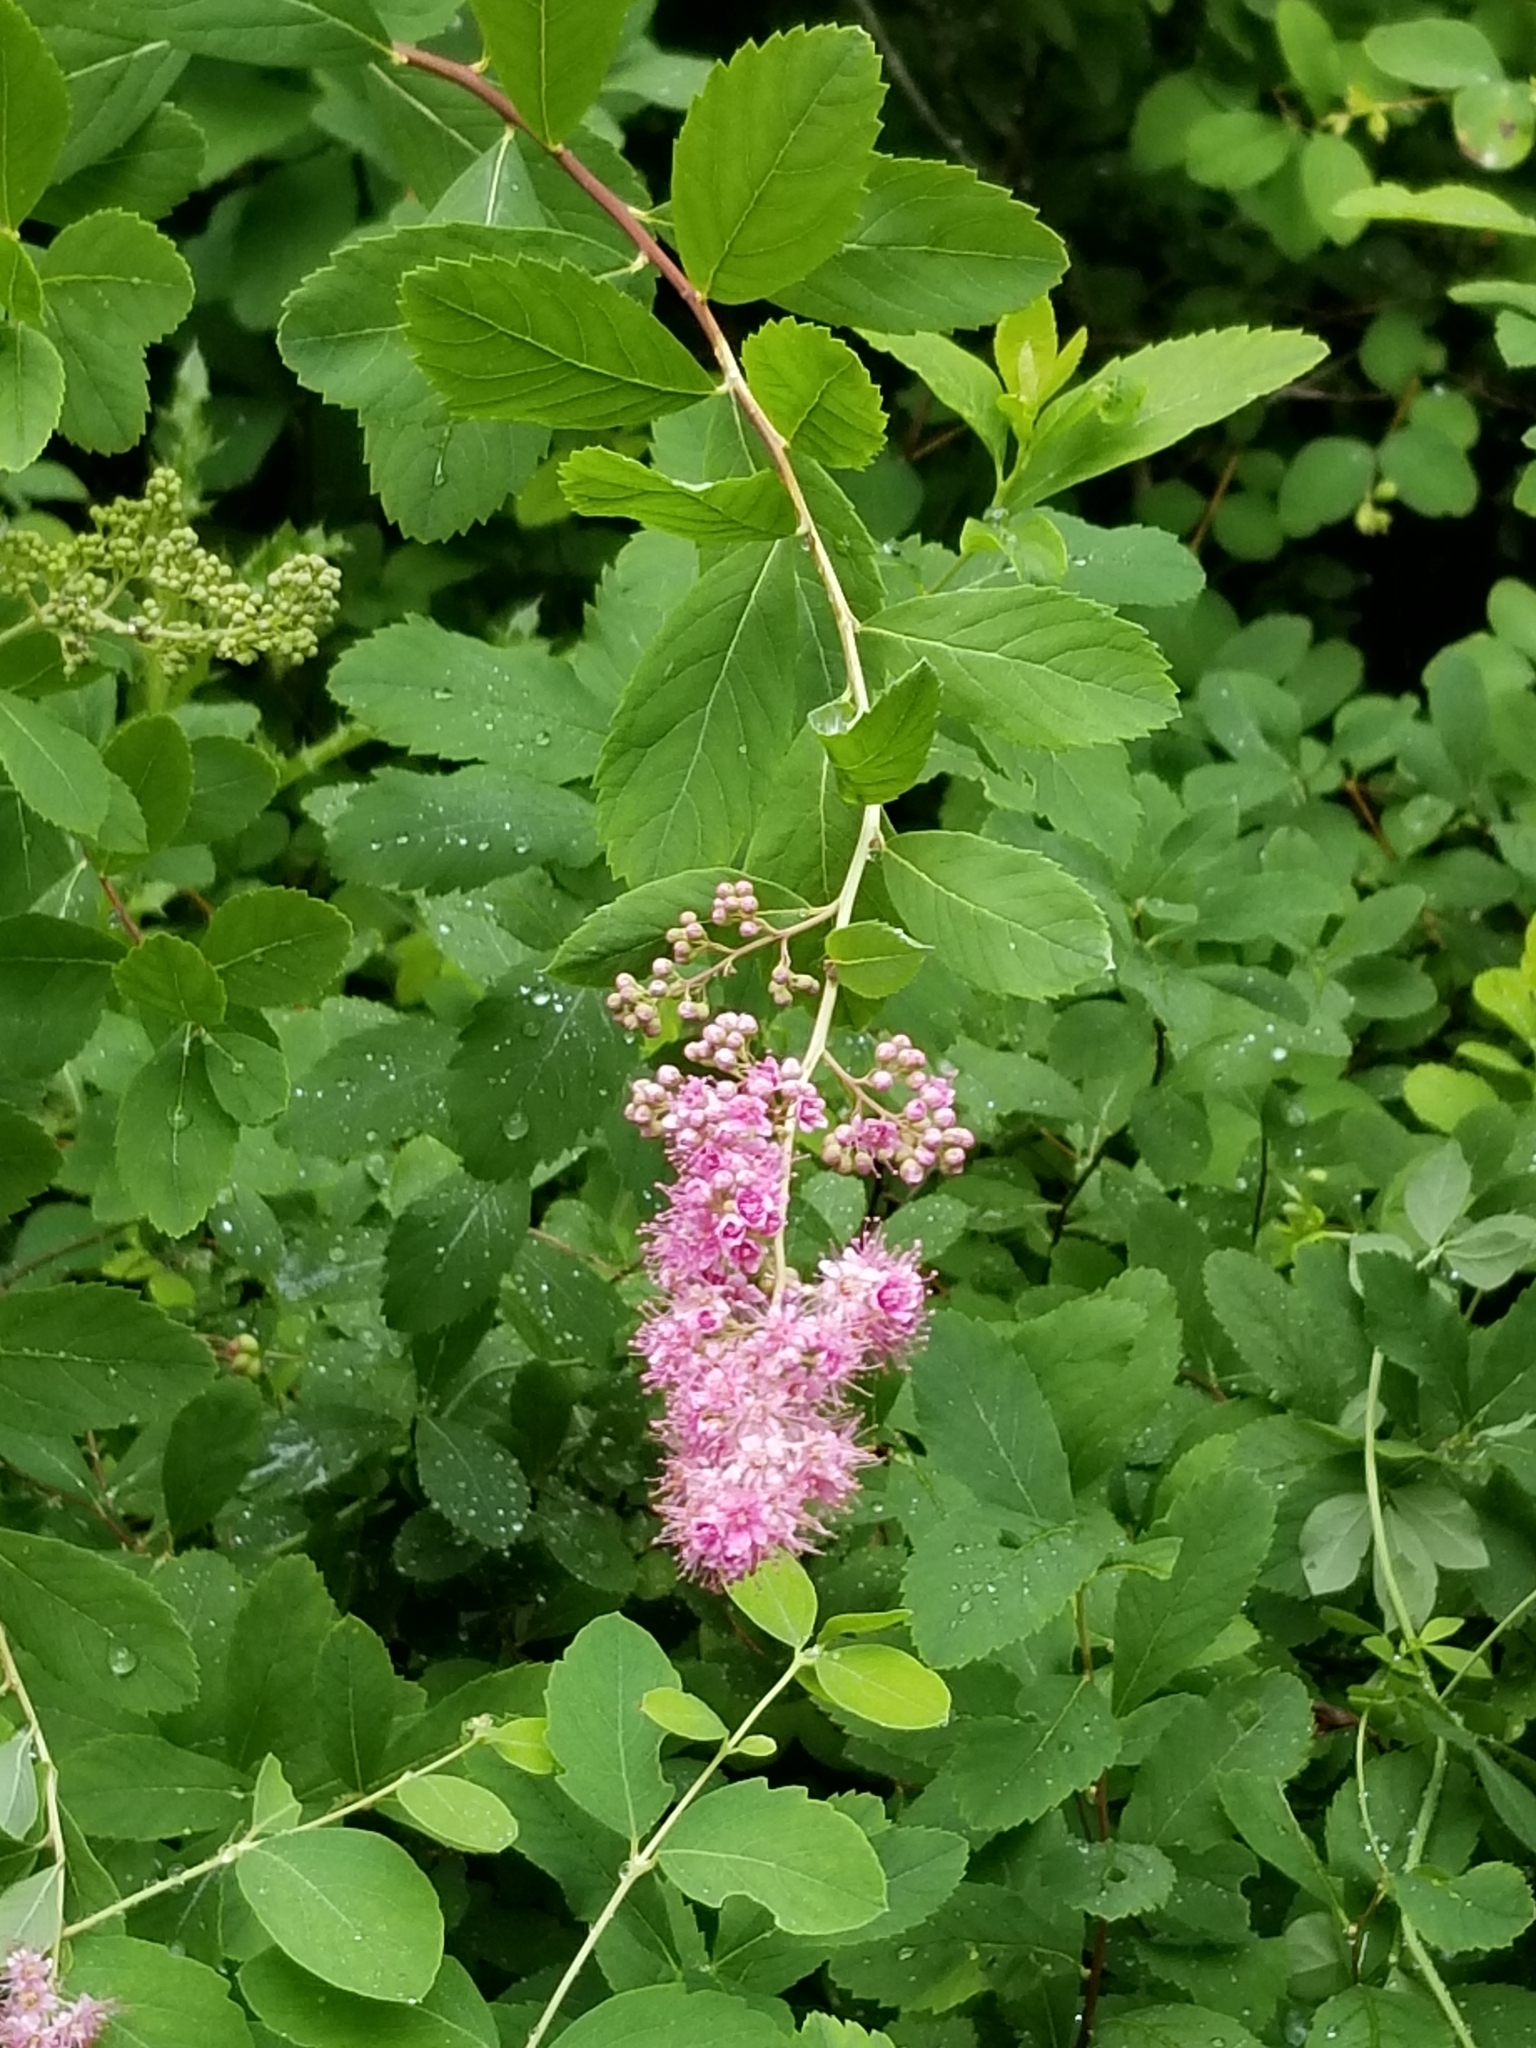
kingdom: Plantae
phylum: Tracheophyta
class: Magnoliopsida
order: Rosales
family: Rosaceae
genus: Spiraea
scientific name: Spiraea douglasii
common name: Steeplebush
